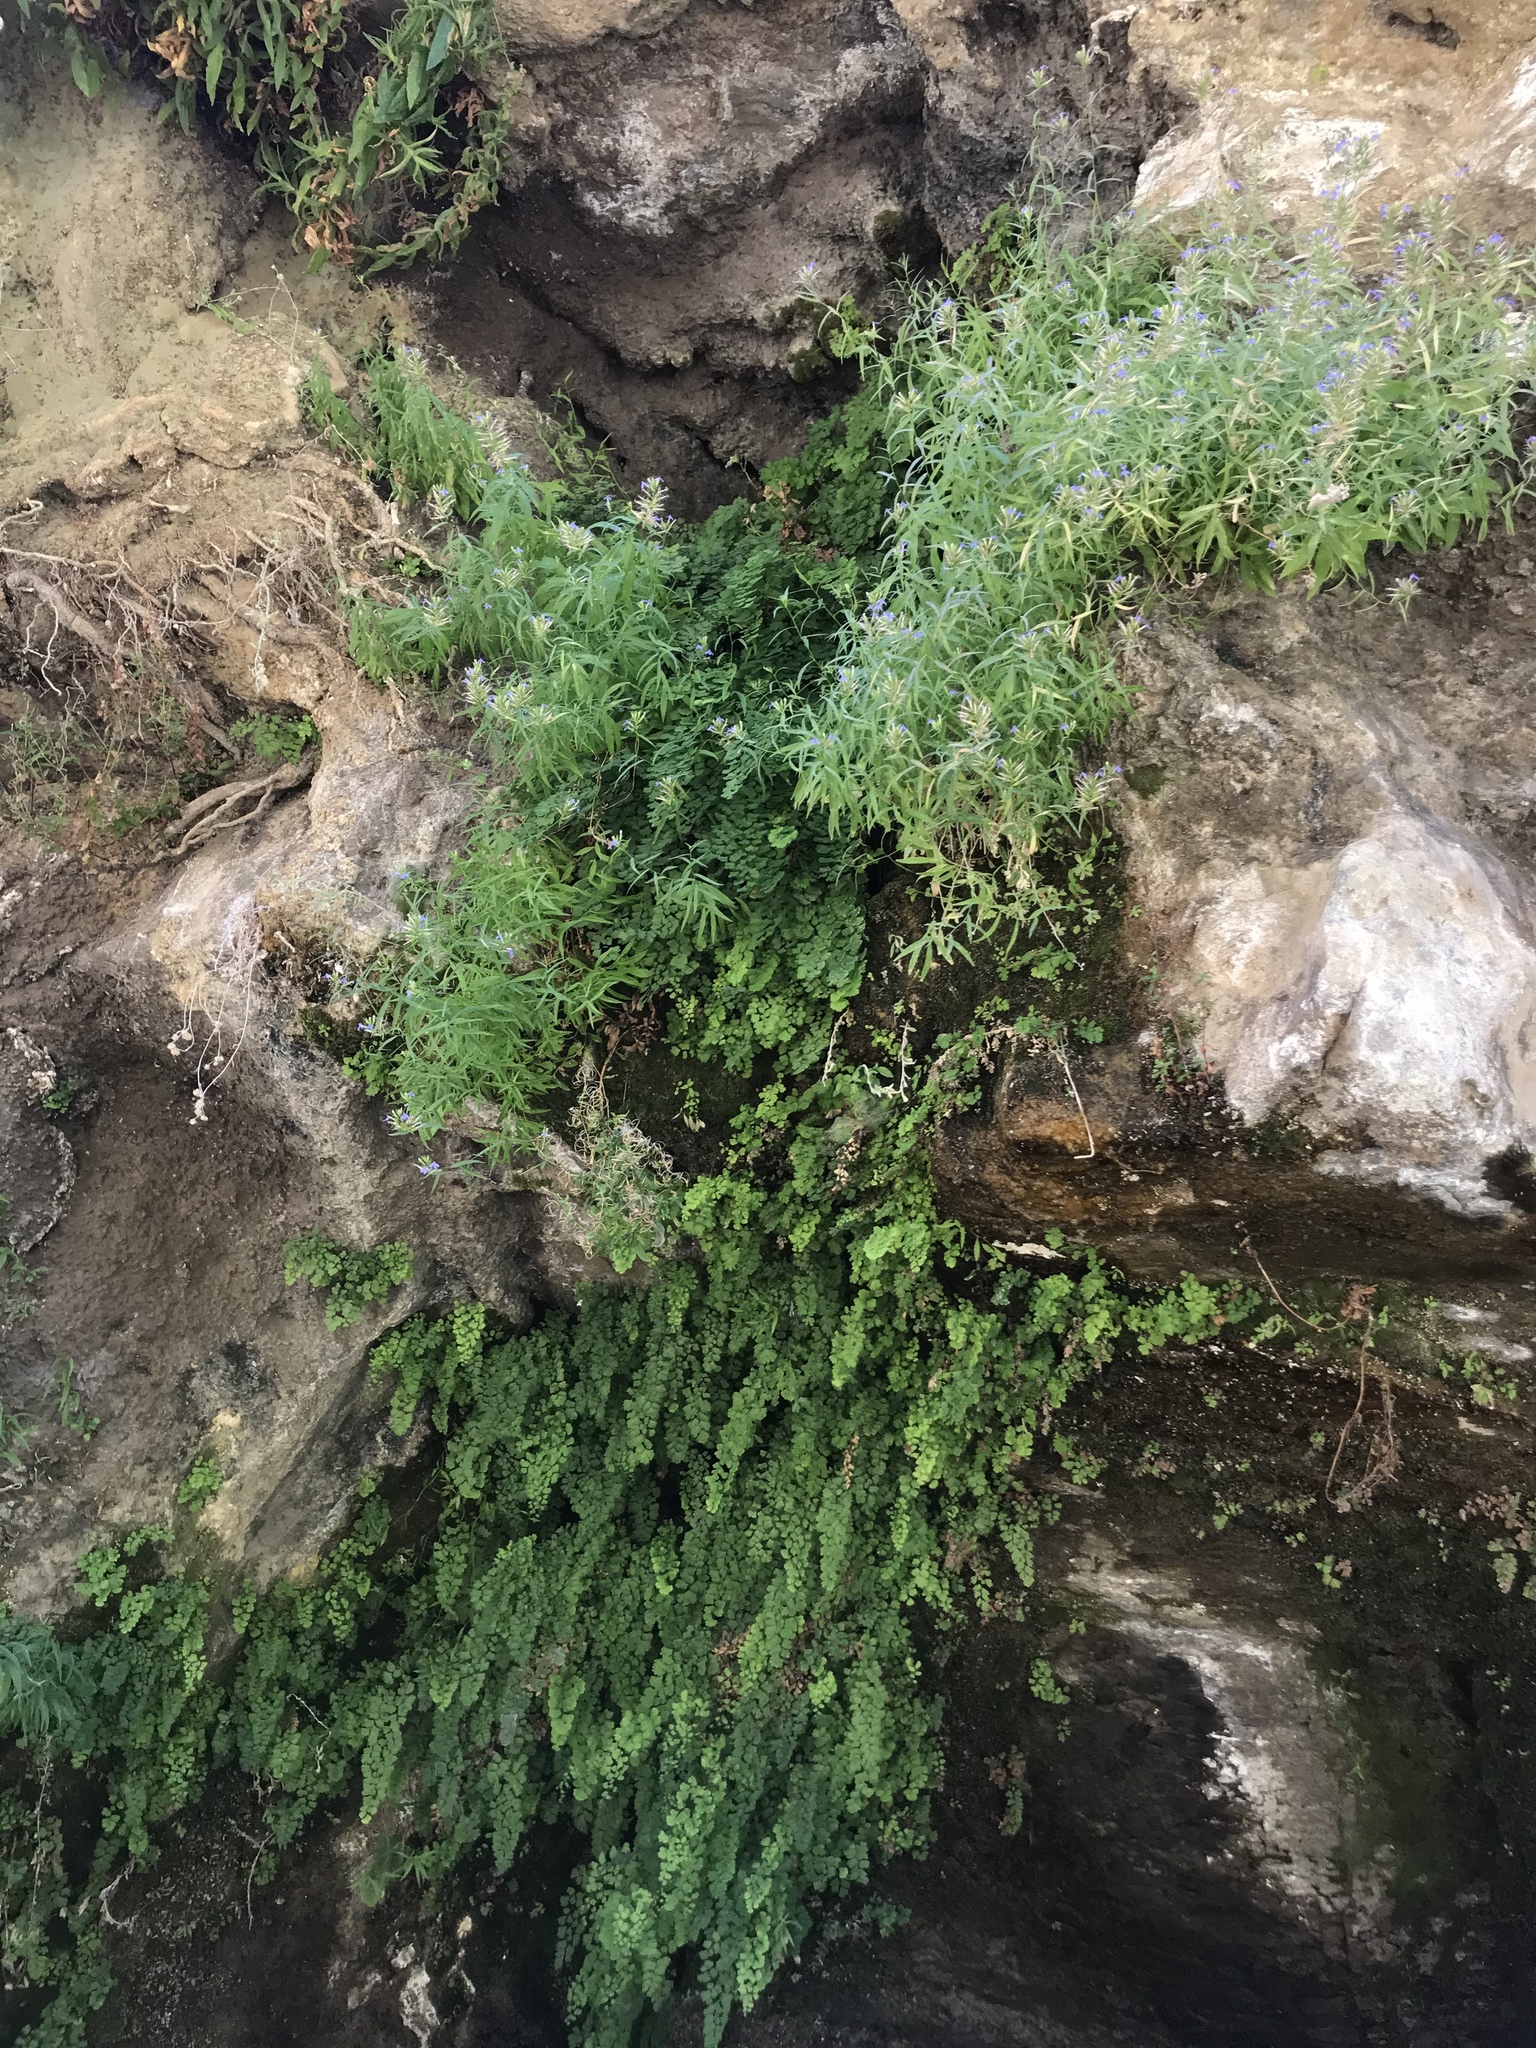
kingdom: Plantae
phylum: Tracheophyta
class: Magnoliopsida
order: Asterales
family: Campanulaceae
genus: Palmerella
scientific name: Palmerella debilis
